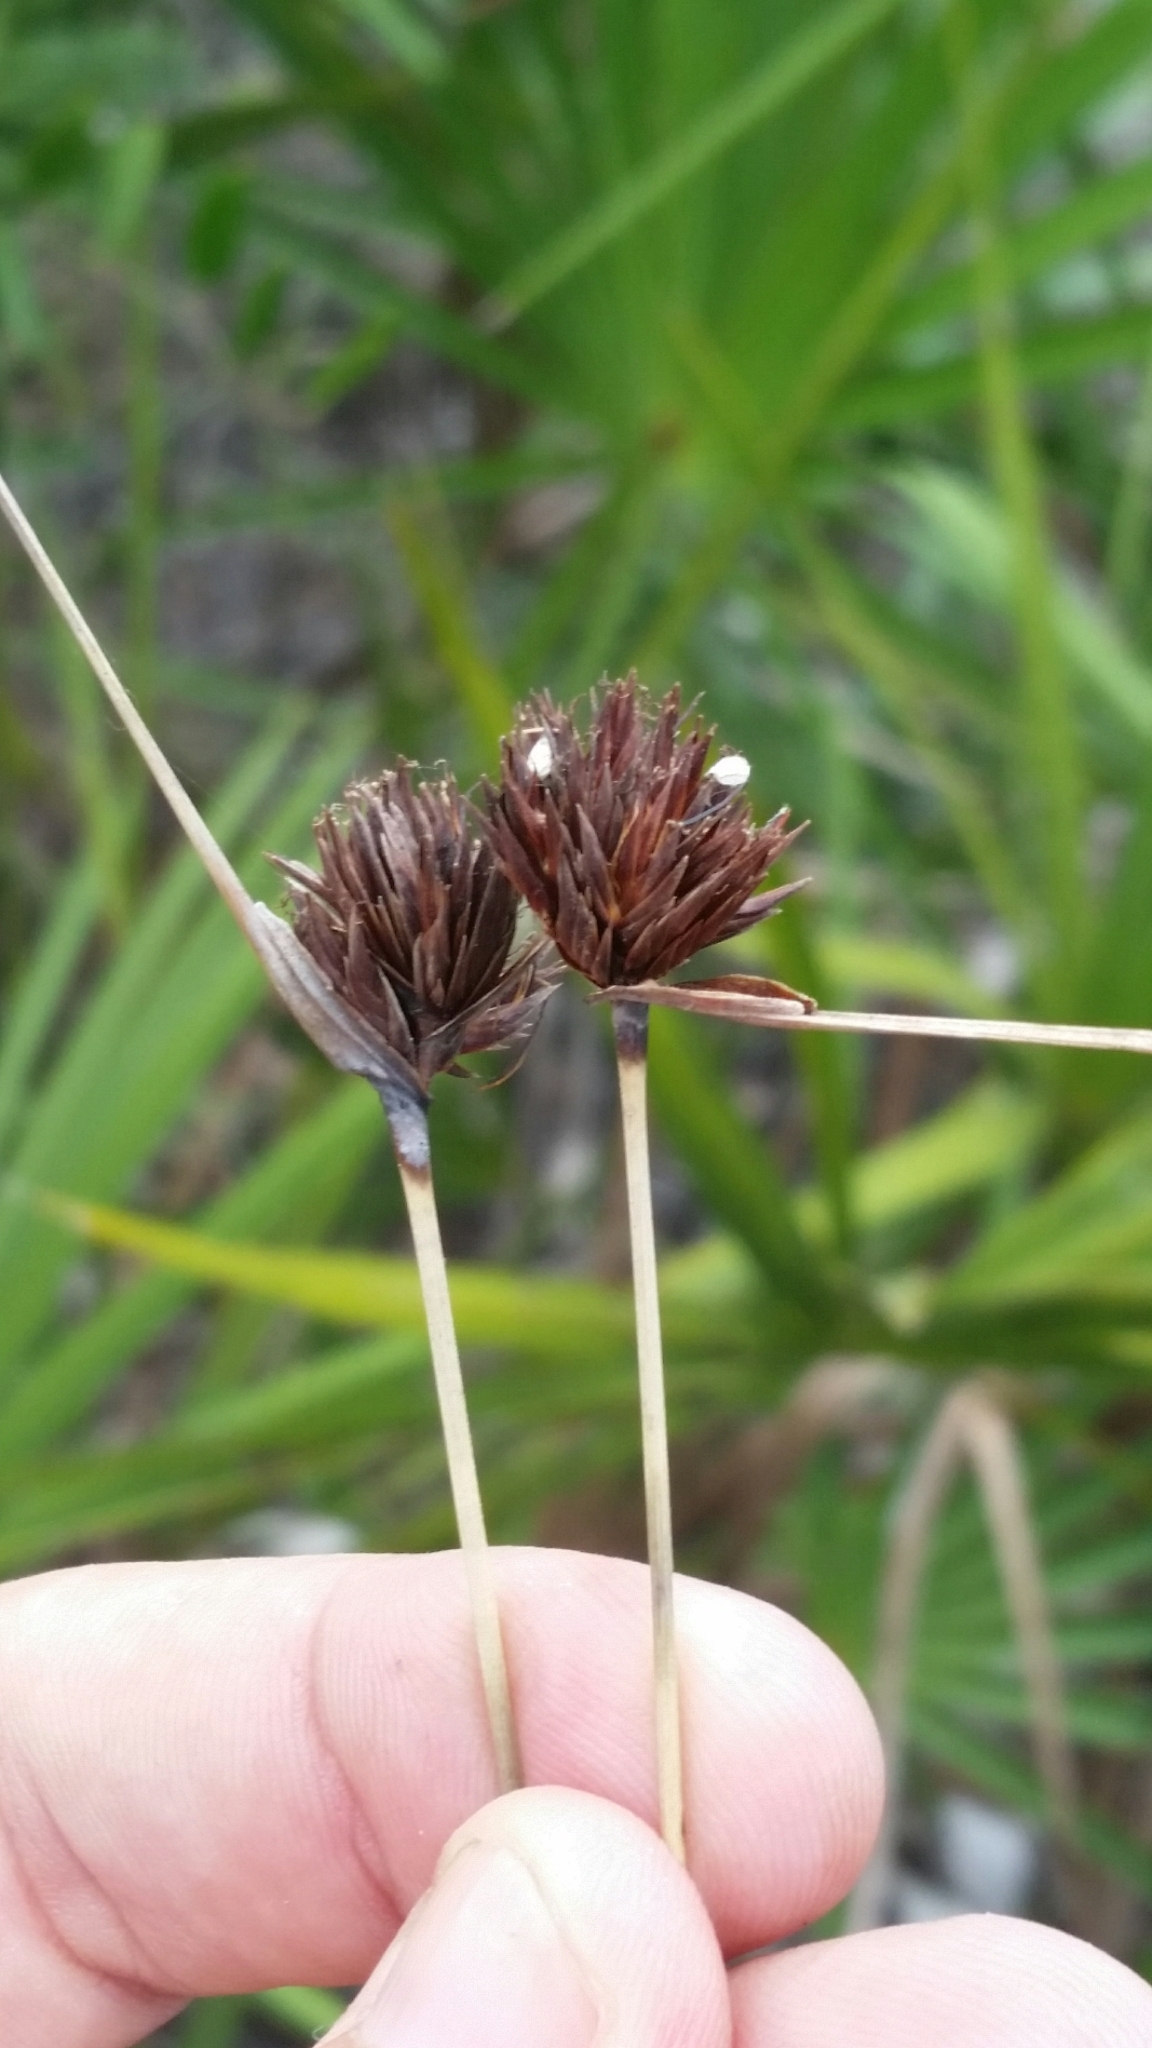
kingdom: Plantae
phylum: Tracheophyta
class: Liliopsida
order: Poales
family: Cyperaceae
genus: Schoenus
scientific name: Schoenus nigricans
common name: Black bog-rush
